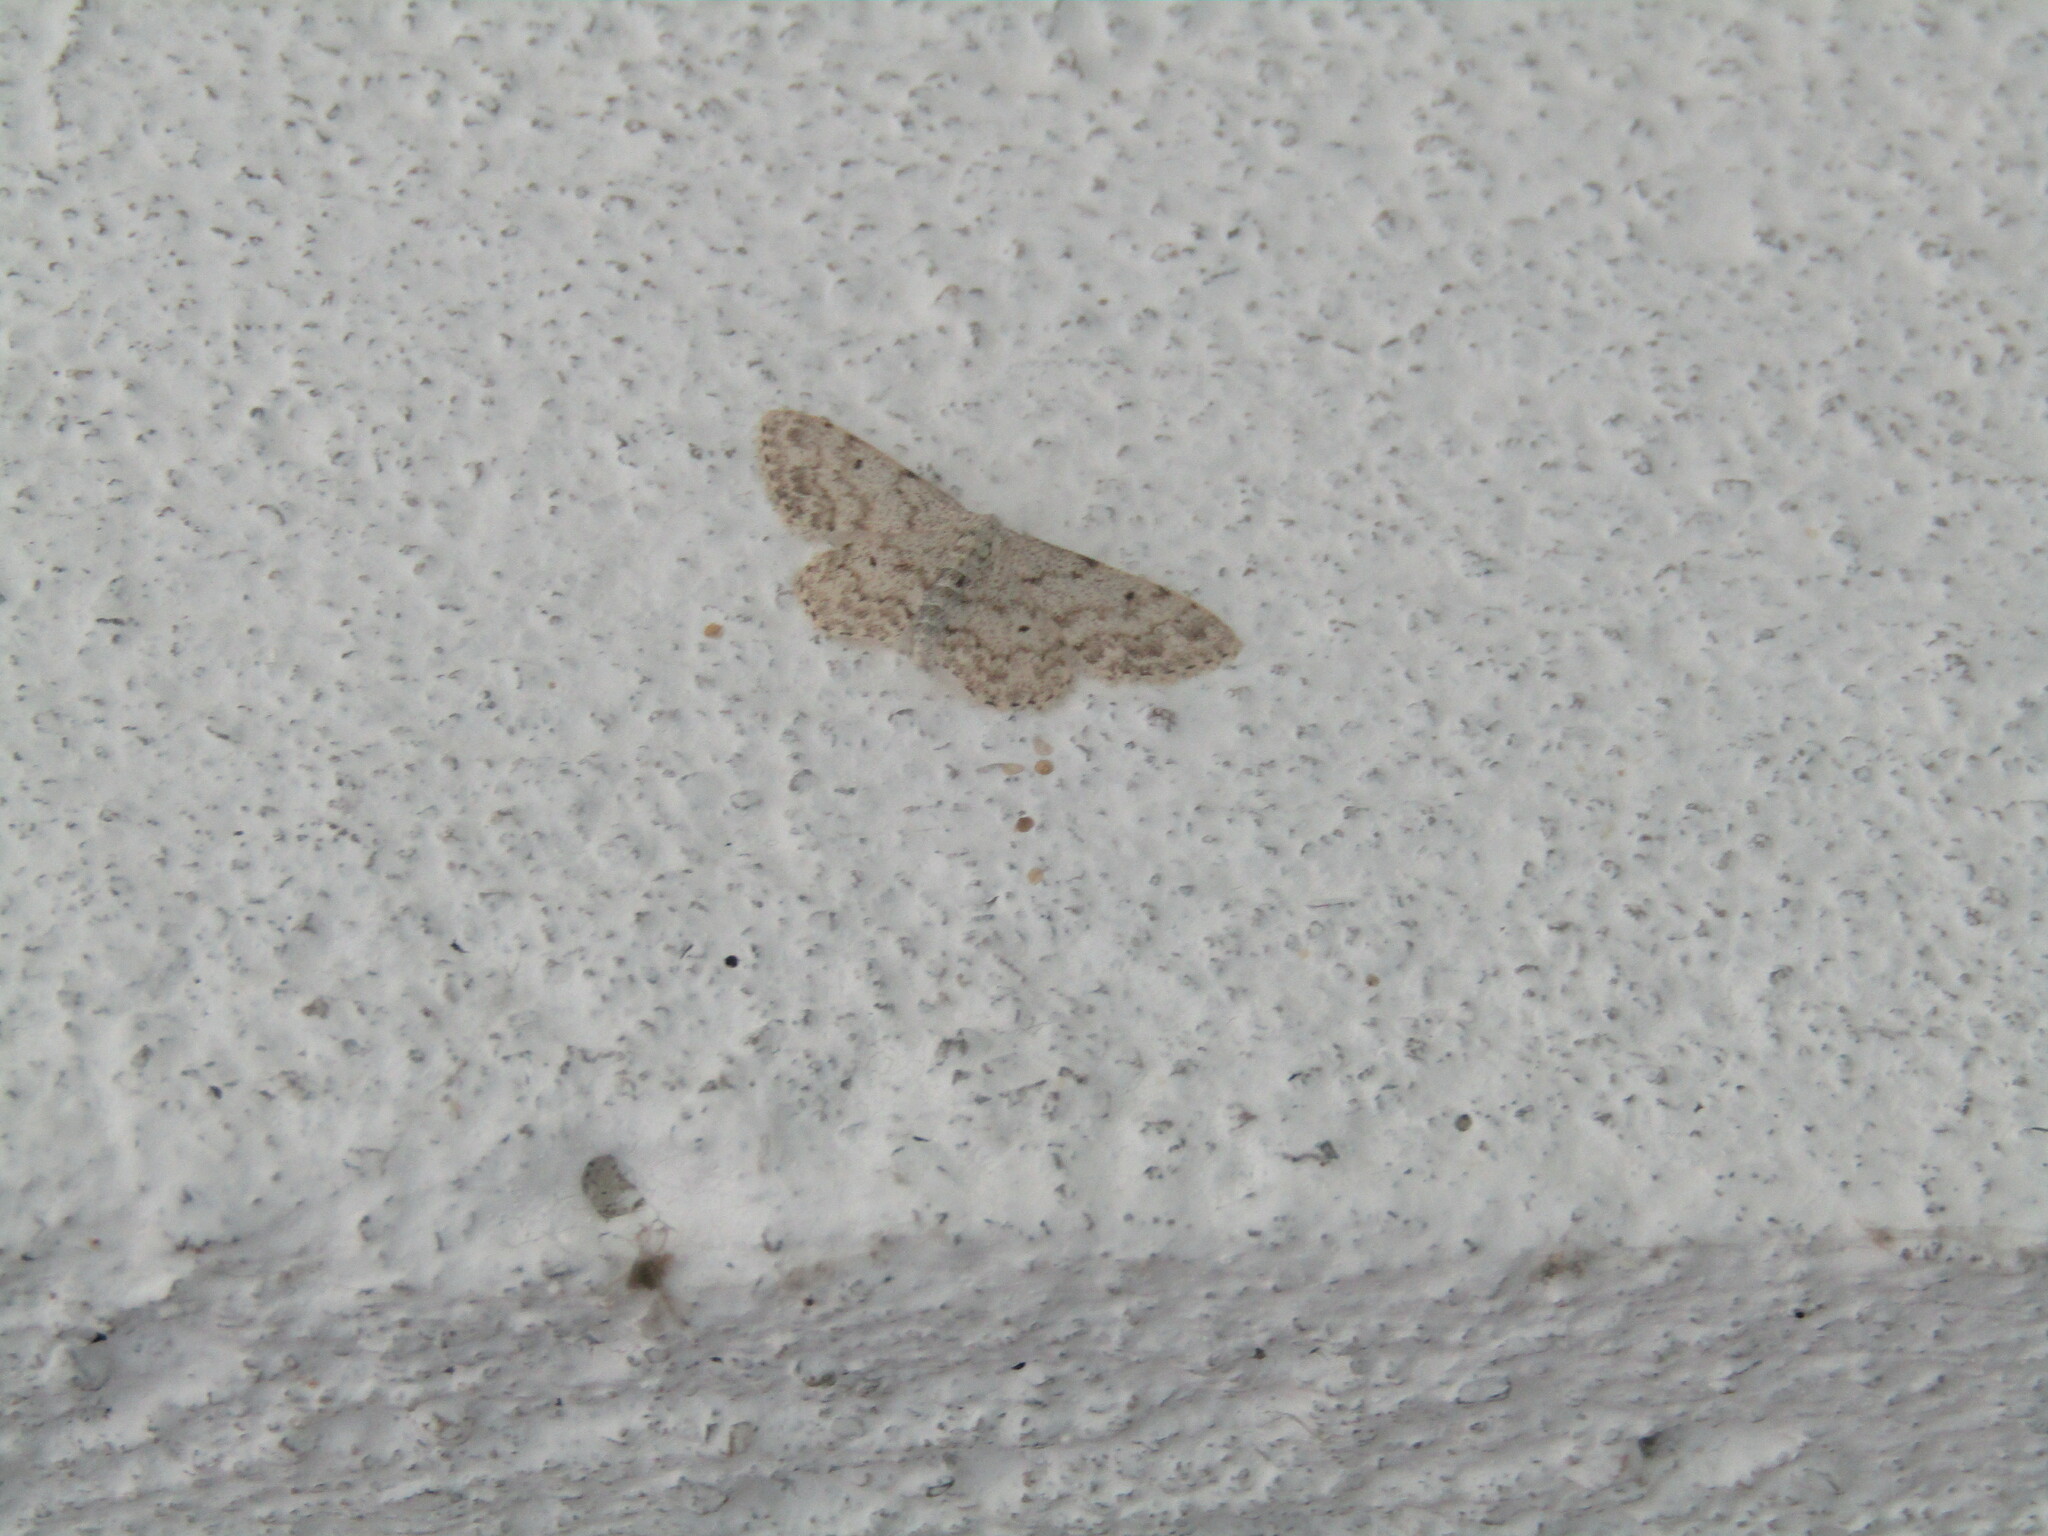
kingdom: Animalia
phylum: Arthropoda
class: Insecta
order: Lepidoptera
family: Geometridae
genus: Idaea
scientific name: Idaea camparia
